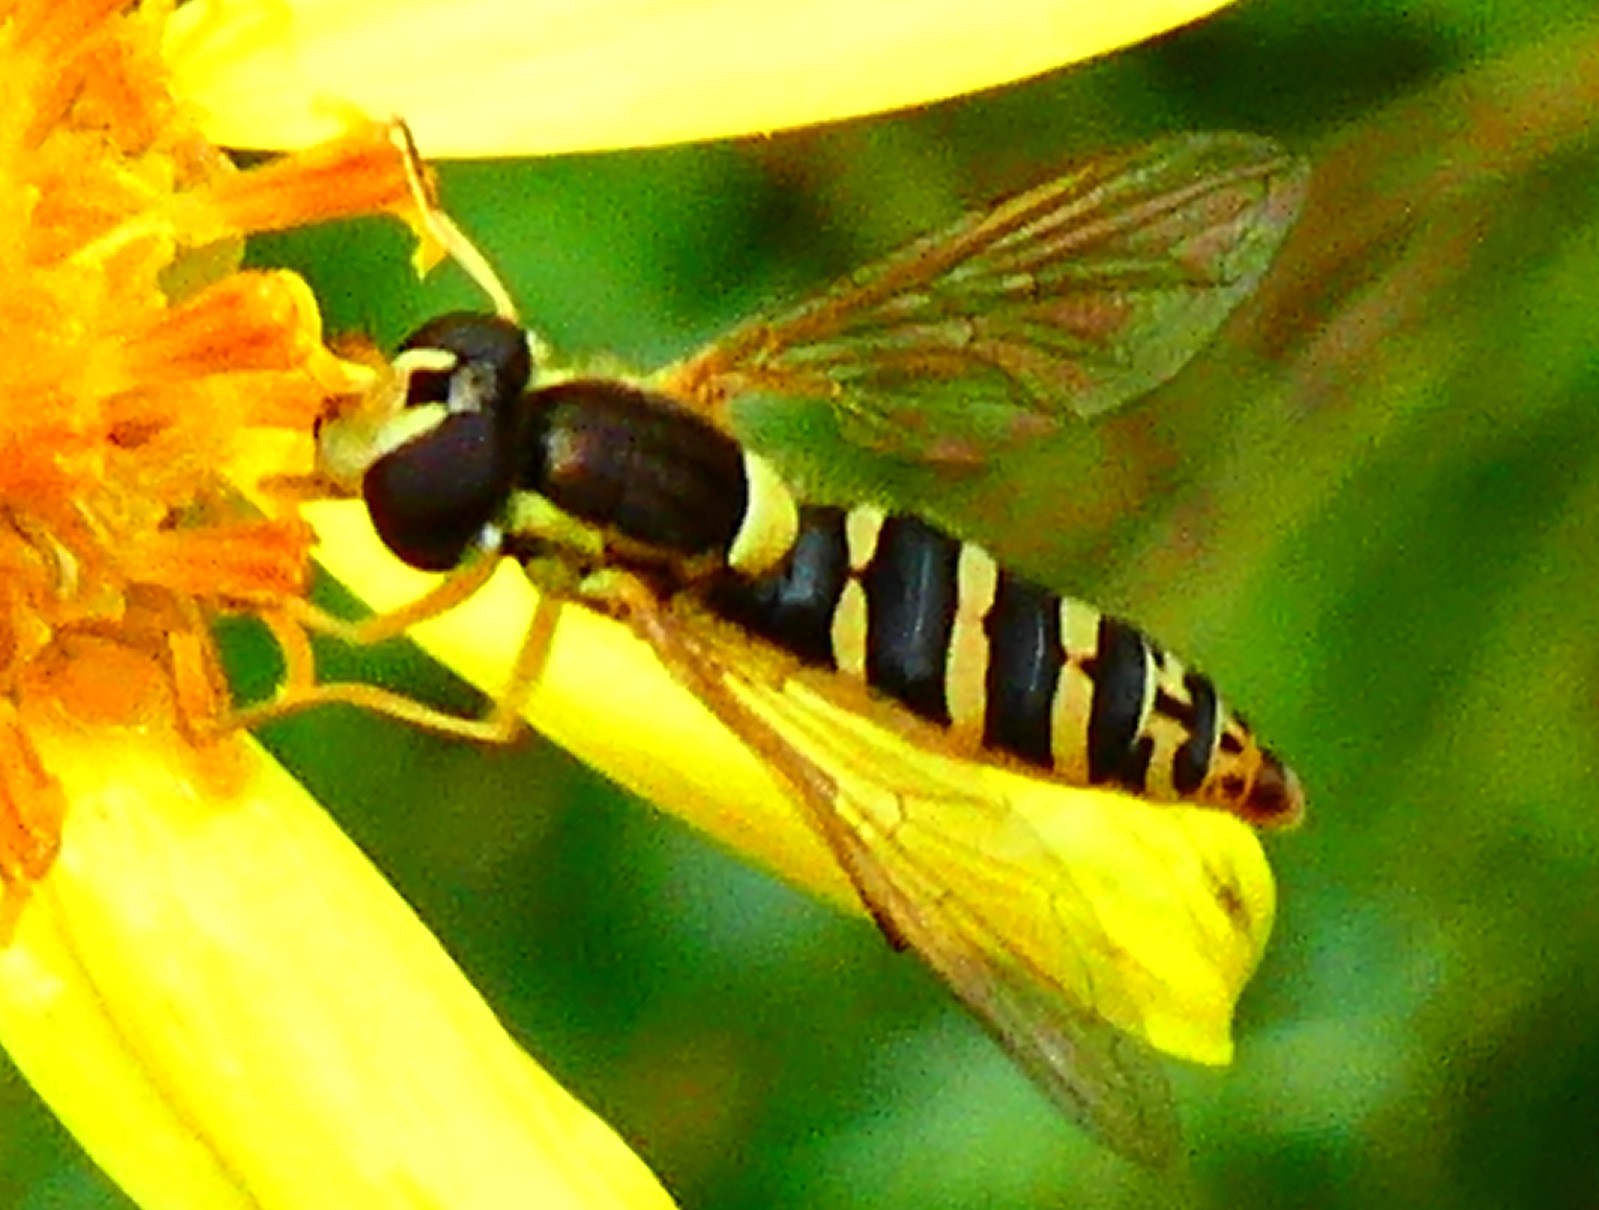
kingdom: Animalia
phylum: Arthropoda
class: Insecta
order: Diptera
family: Syrphidae
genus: Sphaerophoria
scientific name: Sphaerophoria
